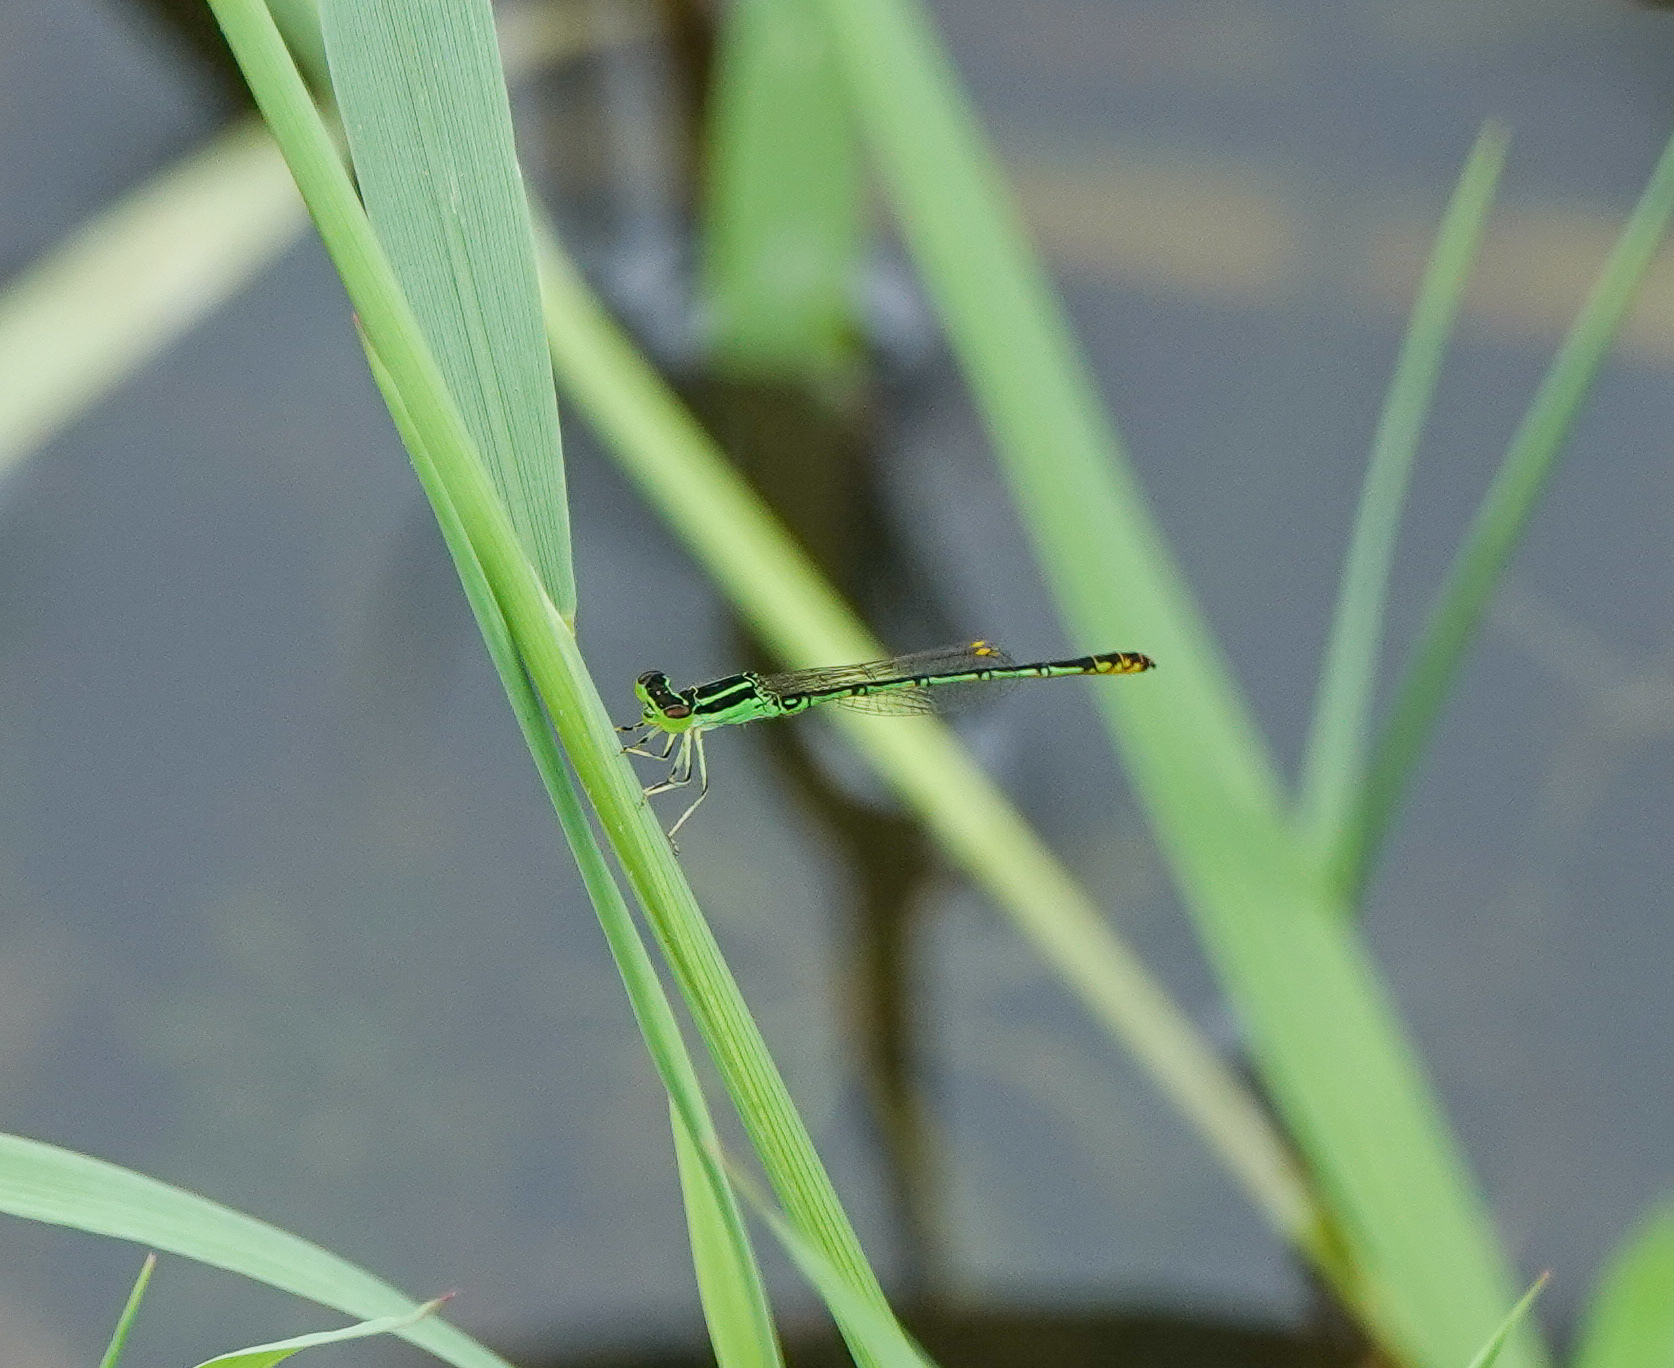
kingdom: Animalia
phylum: Arthropoda
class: Insecta
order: Odonata
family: Coenagrionidae
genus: Agriocnemis
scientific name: Agriocnemis kalinga
